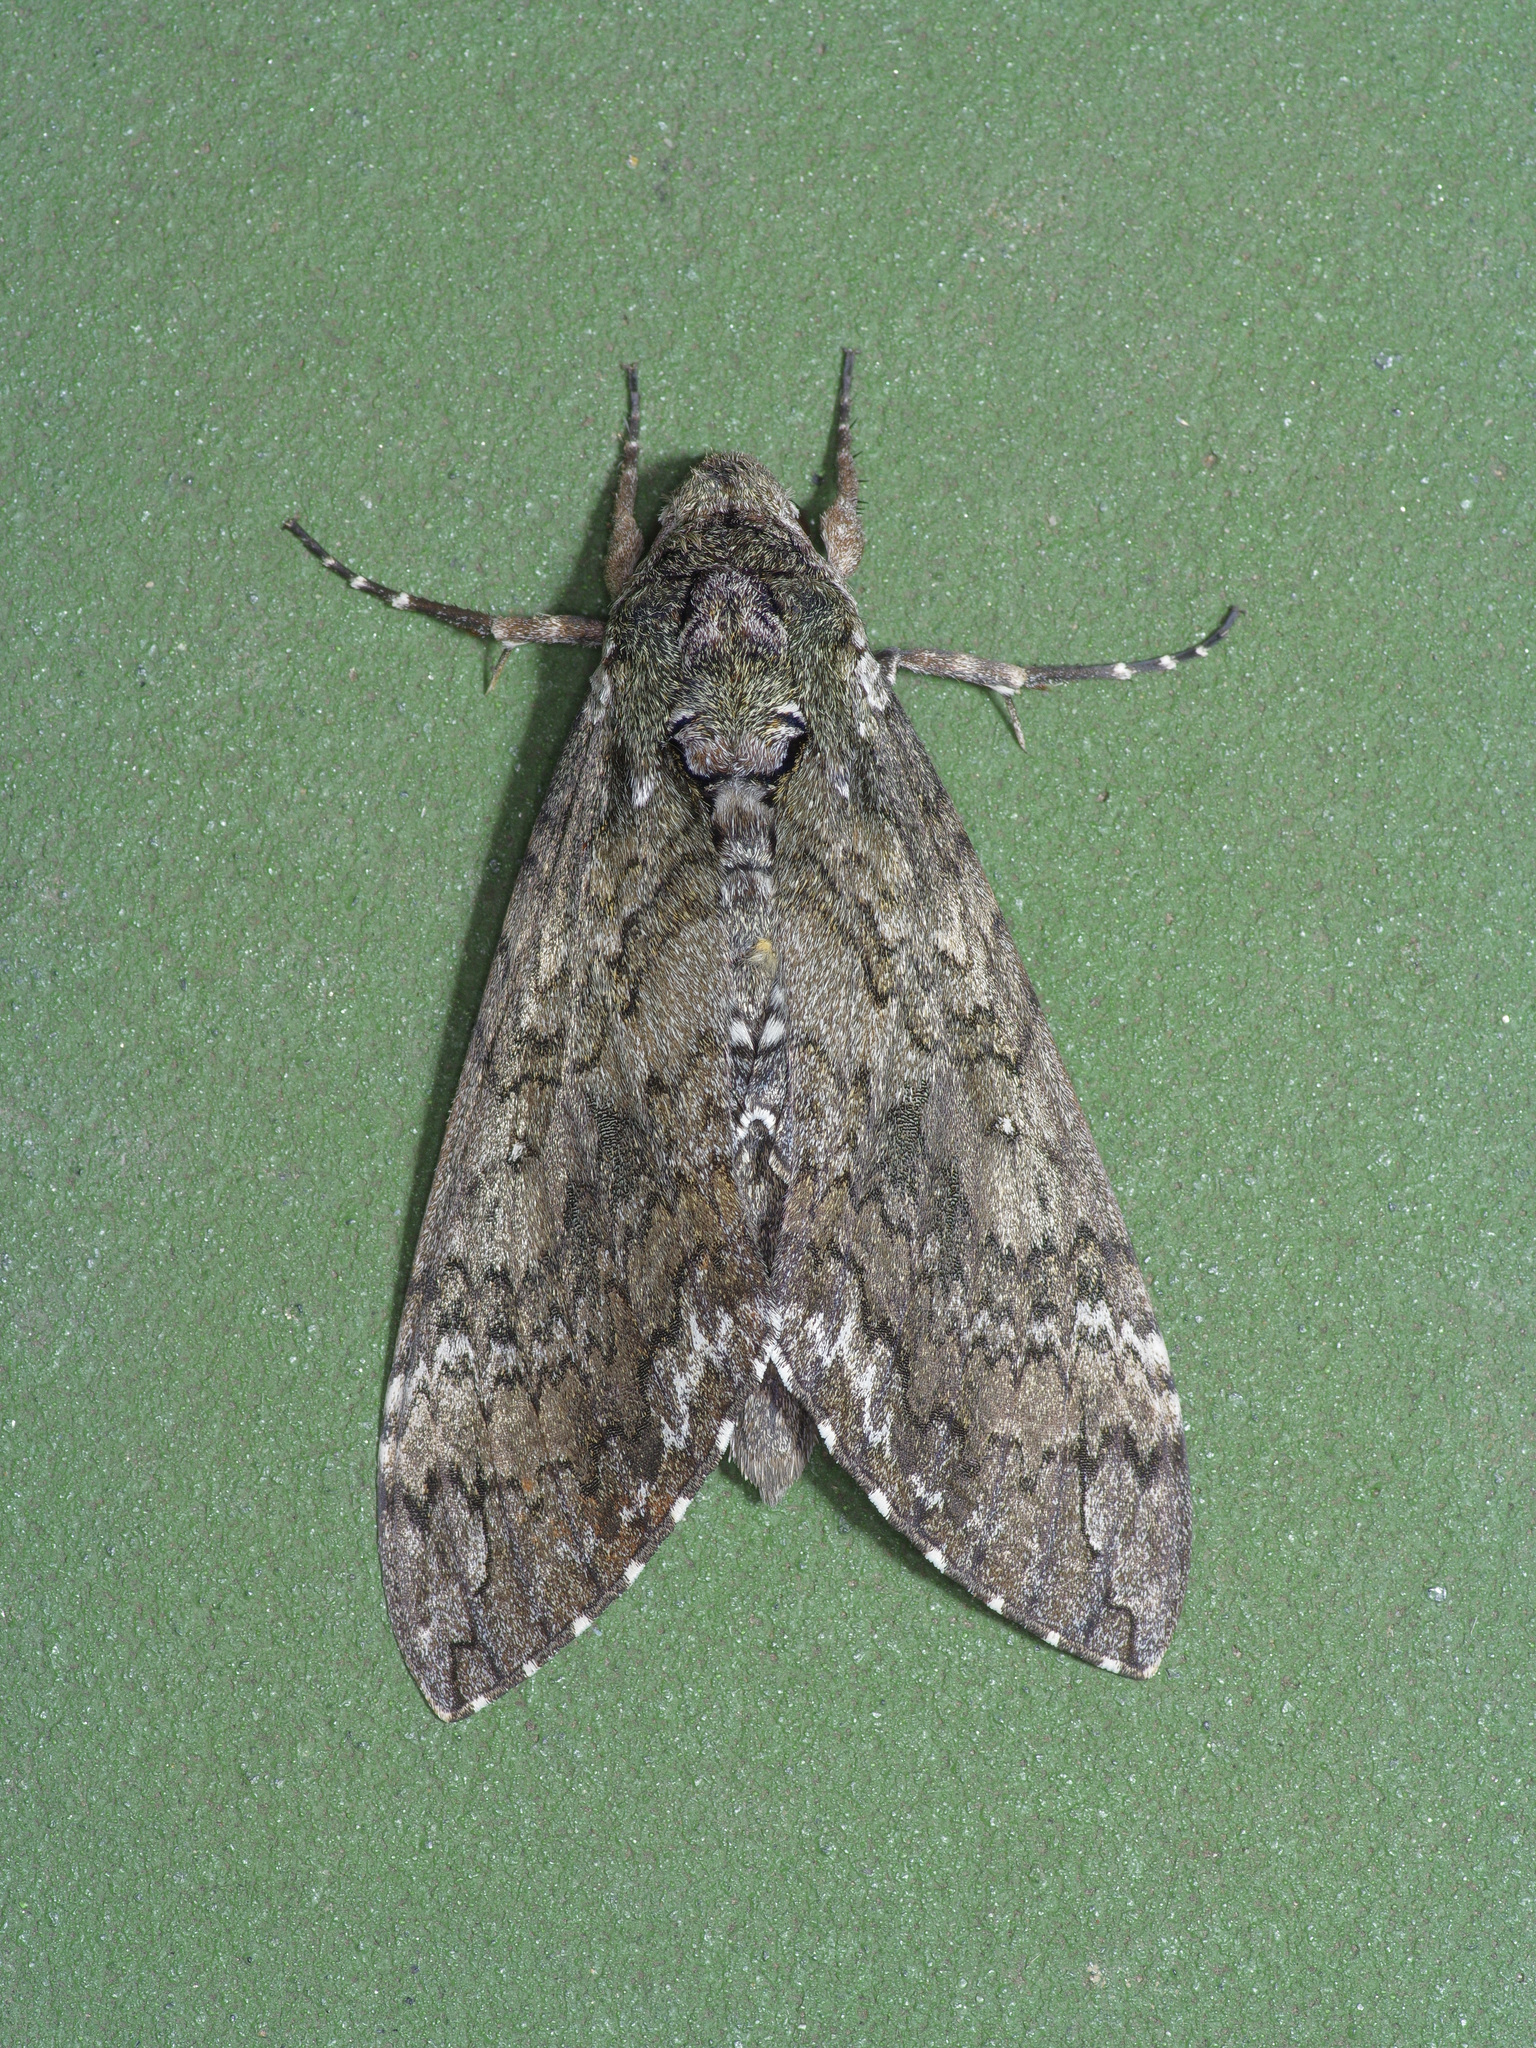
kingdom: Animalia
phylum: Arthropoda
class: Insecta
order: Lepidoptera
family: Sphingidae
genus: Manduca
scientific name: Manduca sexta
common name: Carolina sphinx
